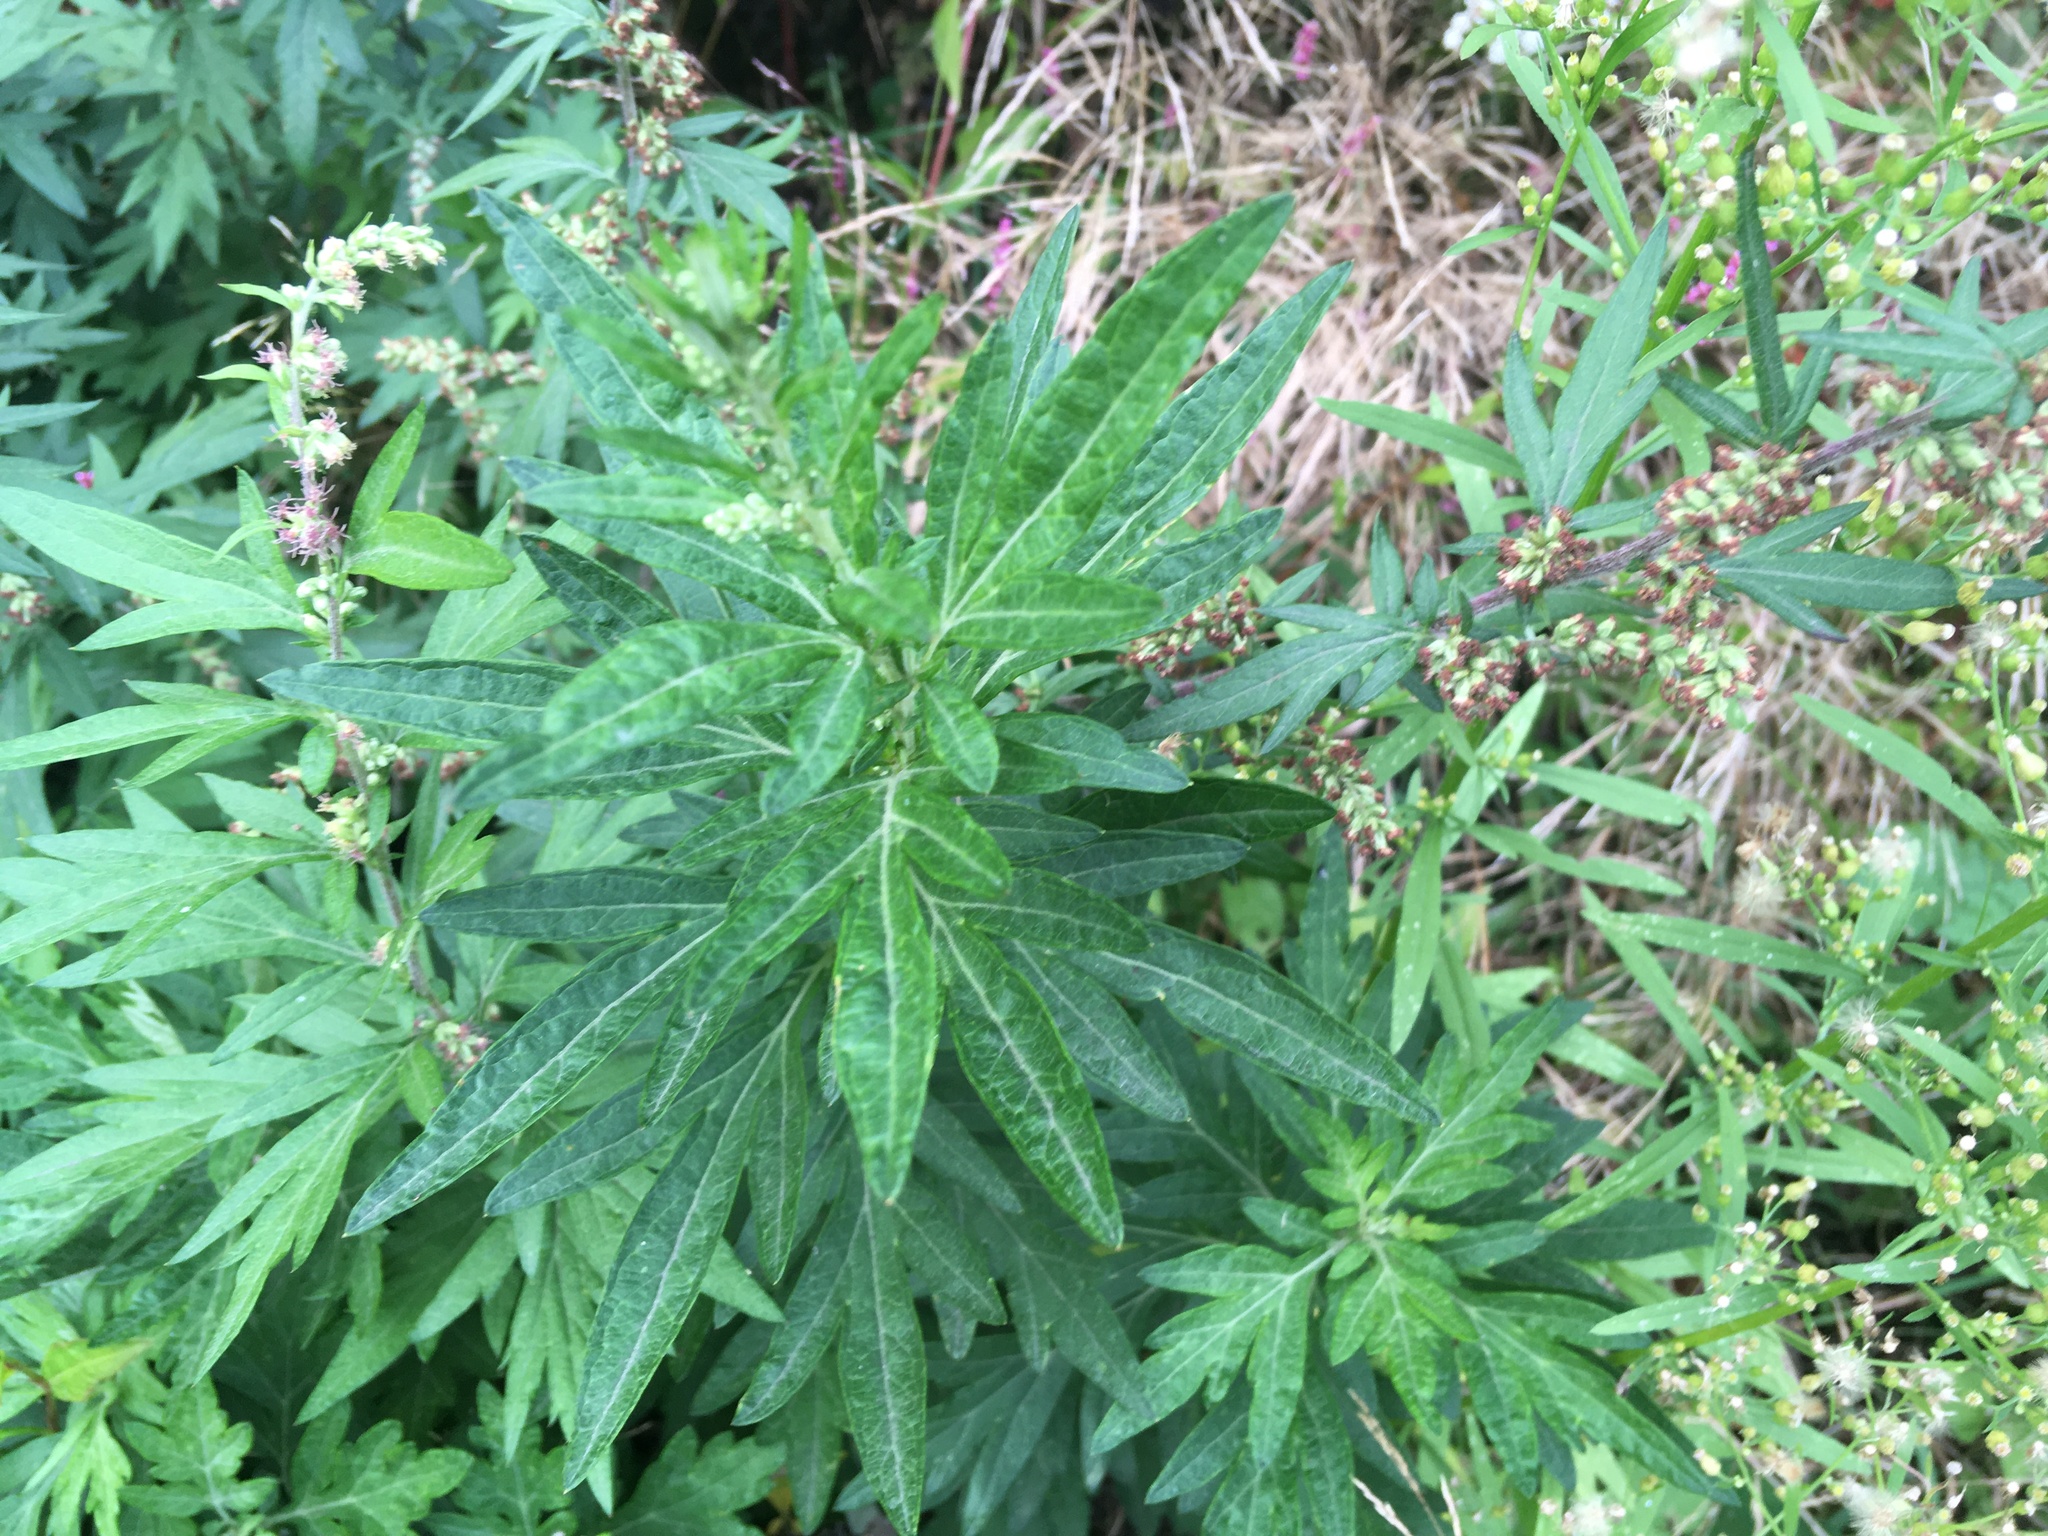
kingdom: Plantae
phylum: Tracheophyta
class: Magnoliopsida
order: Asterales
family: Asteraceae
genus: Artemisia
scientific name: Artemisia vulgaris
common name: Mugwort
